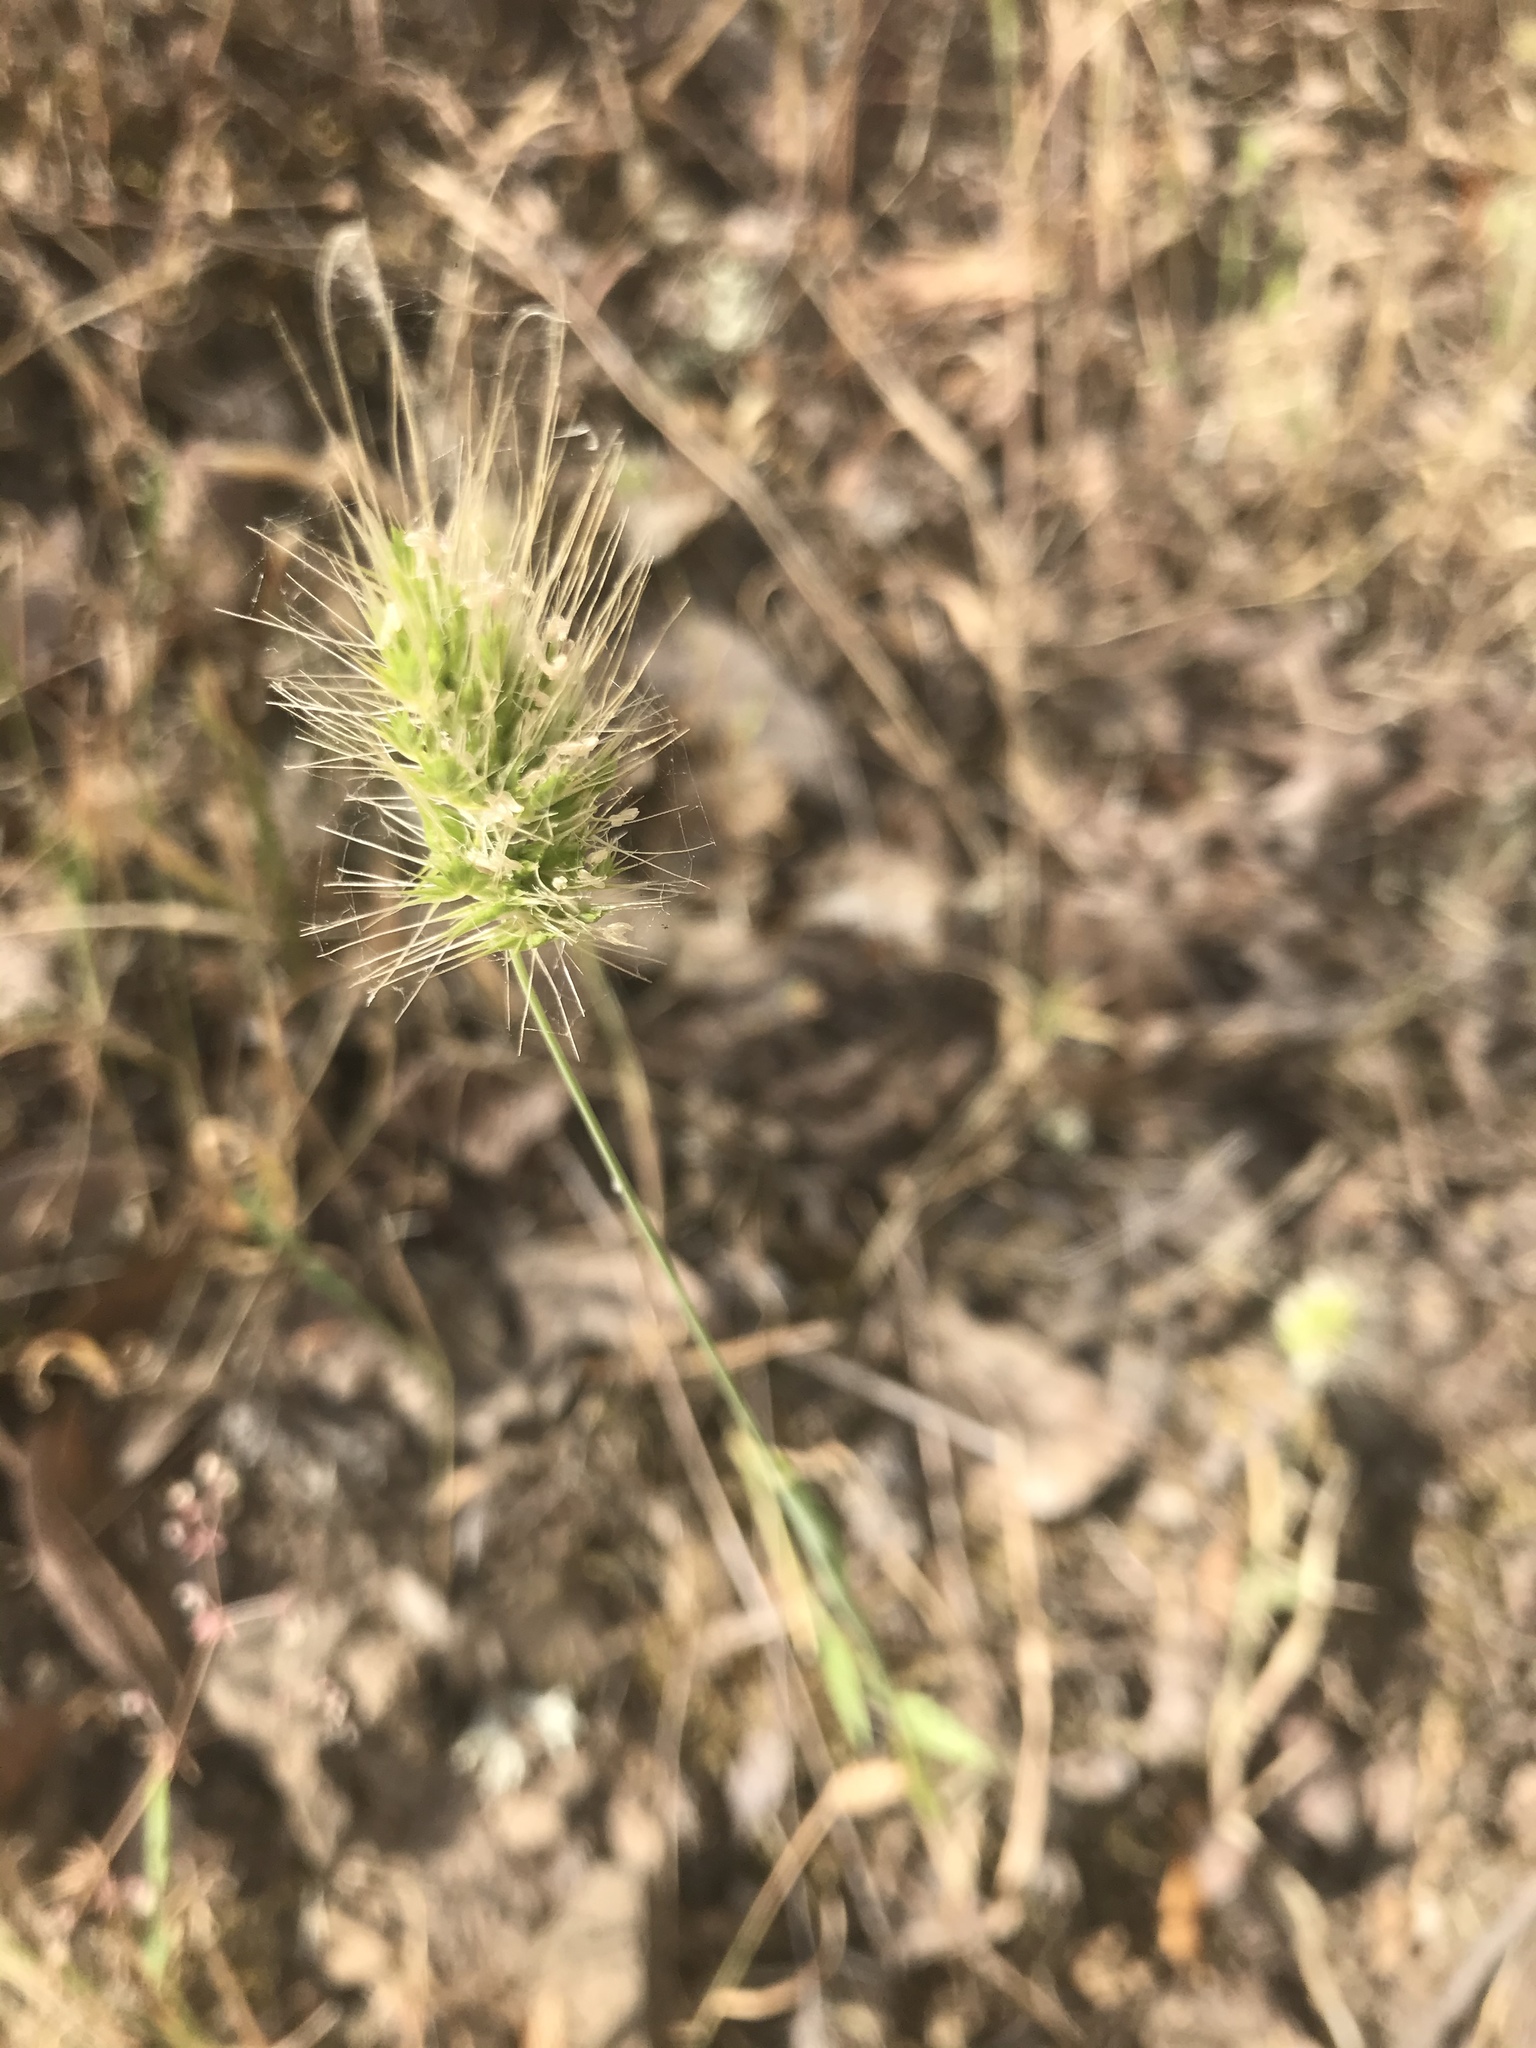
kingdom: Plantae
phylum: Tracheophyta
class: Liliopsida
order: Poales
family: Poaceae
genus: Cynosurus
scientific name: Cynosurus echinatus
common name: Rough dog's-tail
